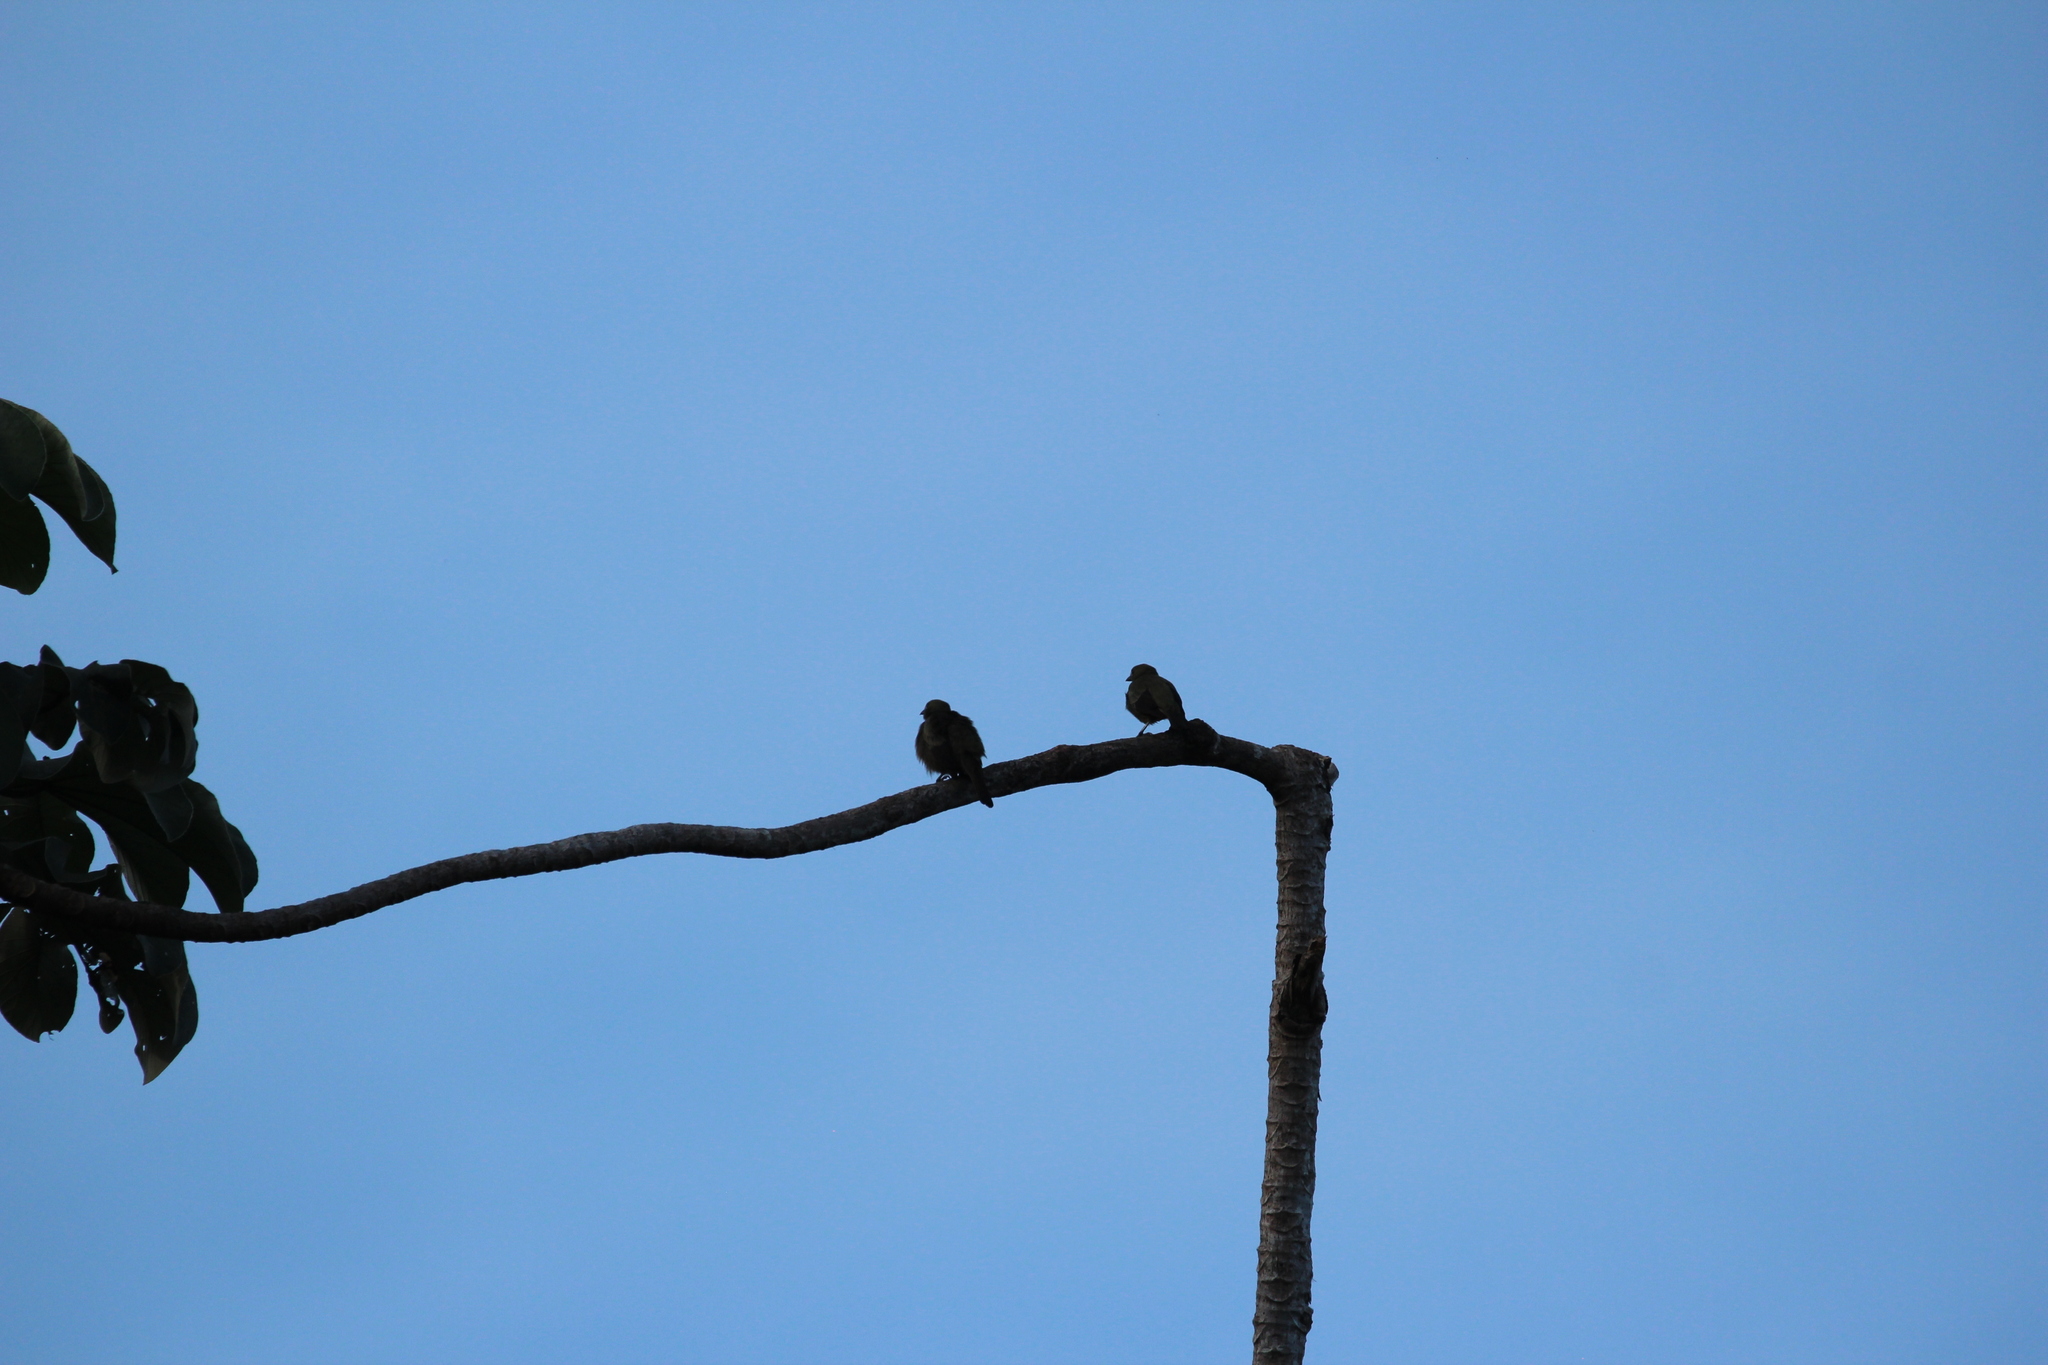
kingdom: Animalia
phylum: Chordata
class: Aves
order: Passeriformes
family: Thraupidae
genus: Thraupis
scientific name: Thraupis palmarum
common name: Palm tanager
